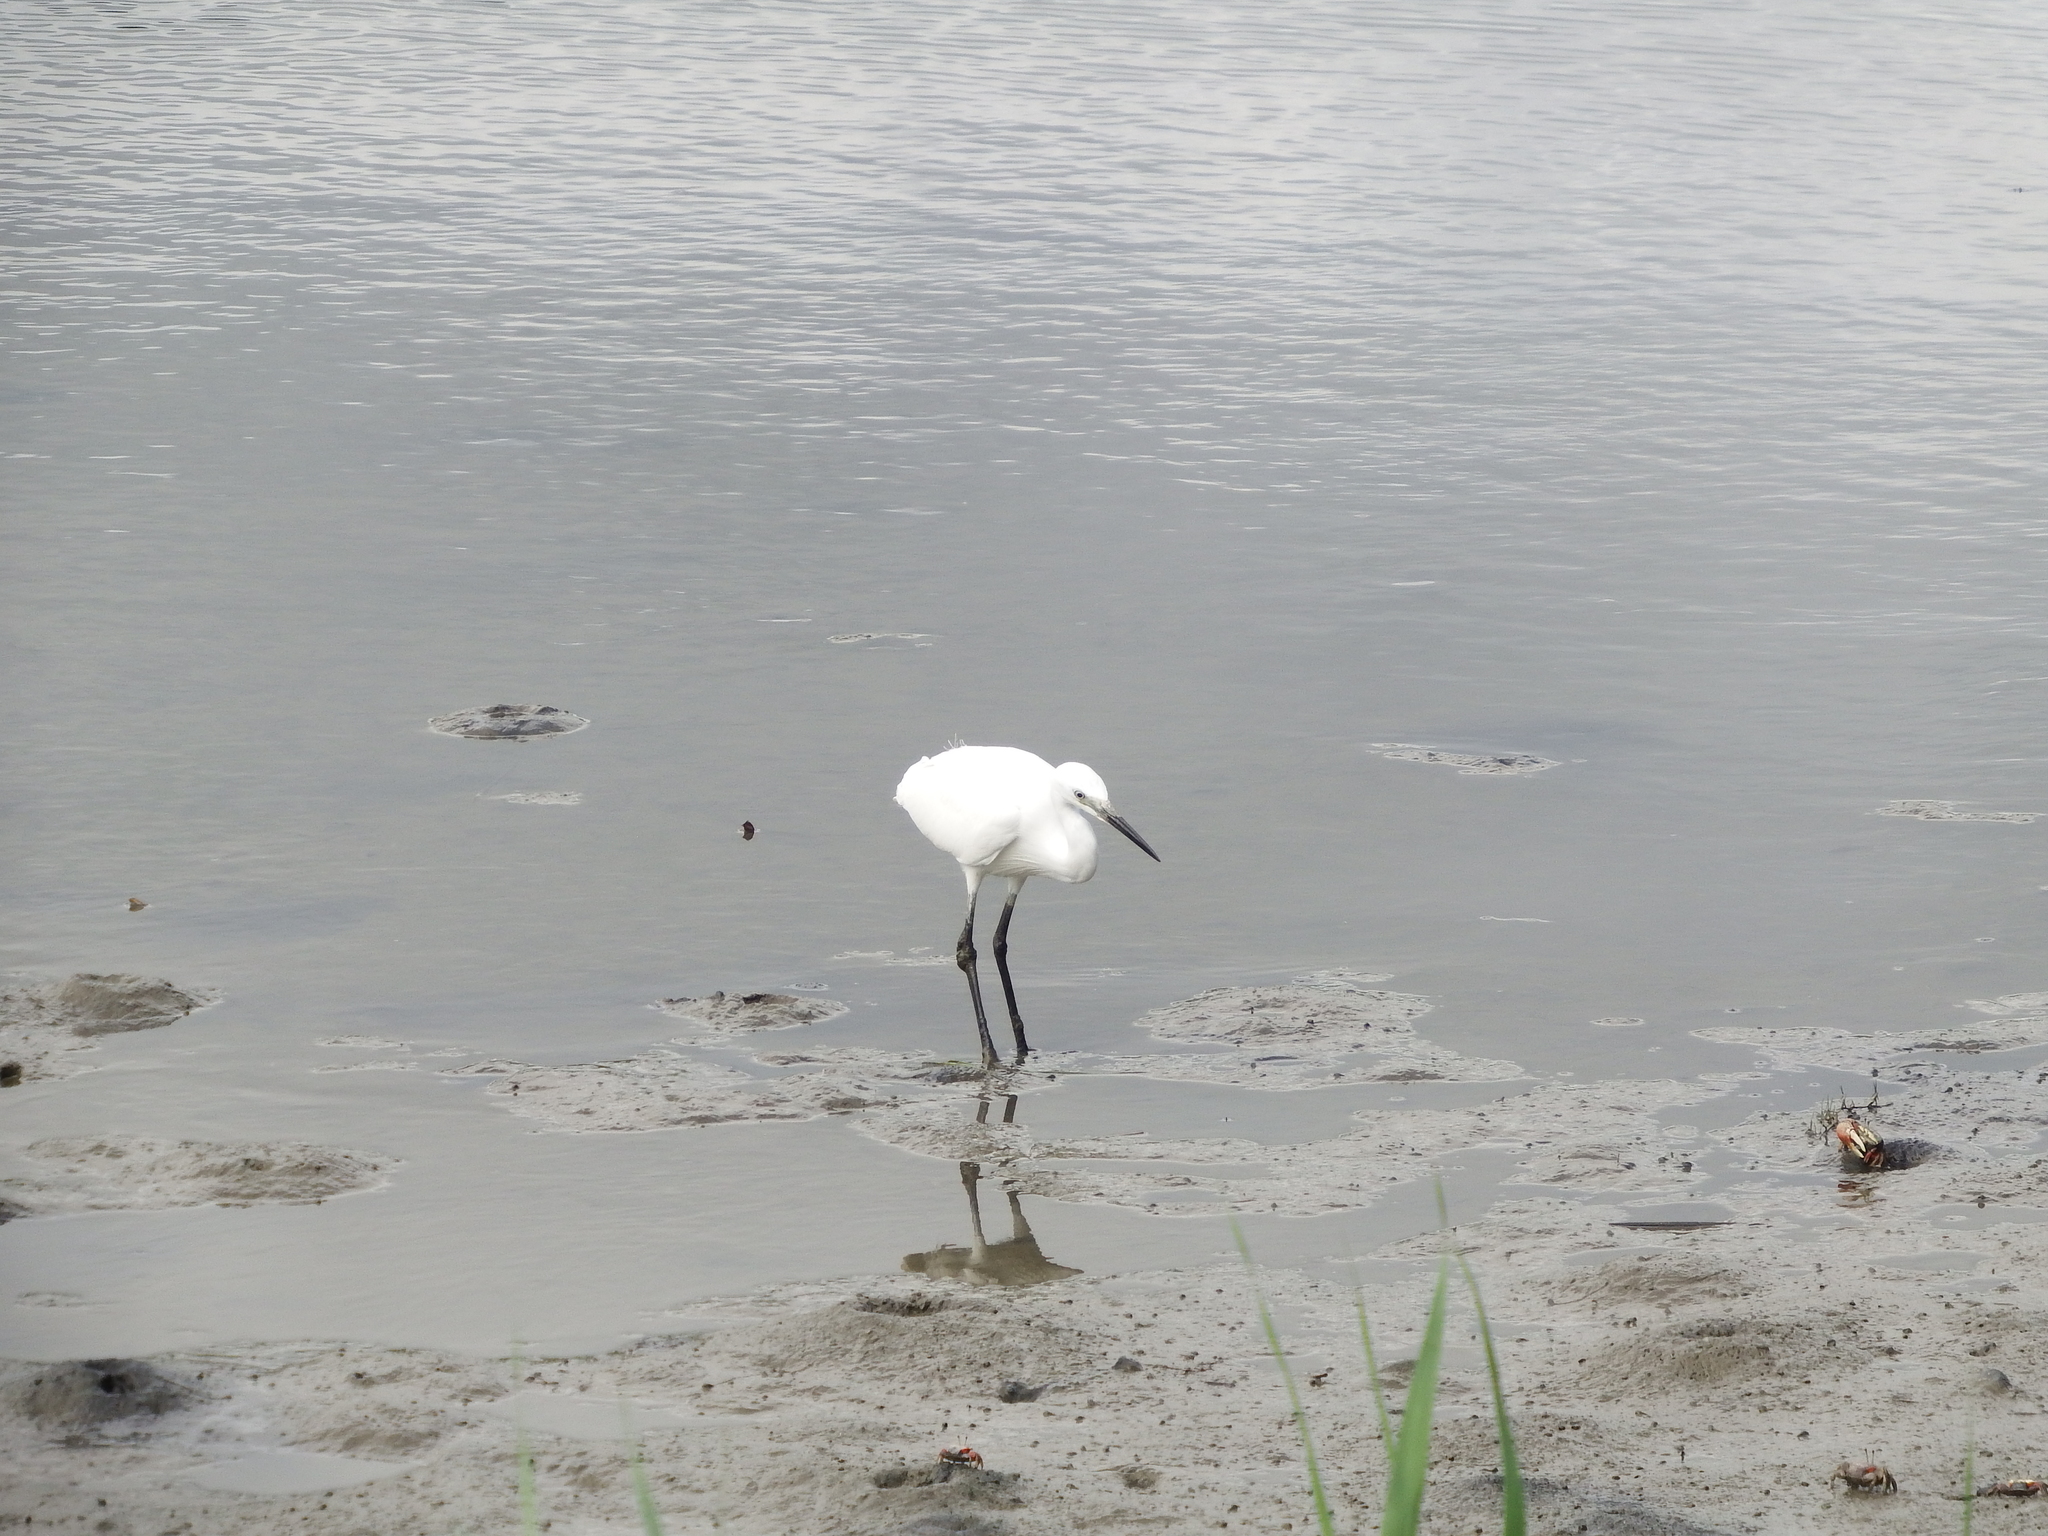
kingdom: Animalia
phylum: Chordata
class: Aves
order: Pelecaniformes
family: Ardeidae
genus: Egretta
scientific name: Egretta garzetta
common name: Little egret
